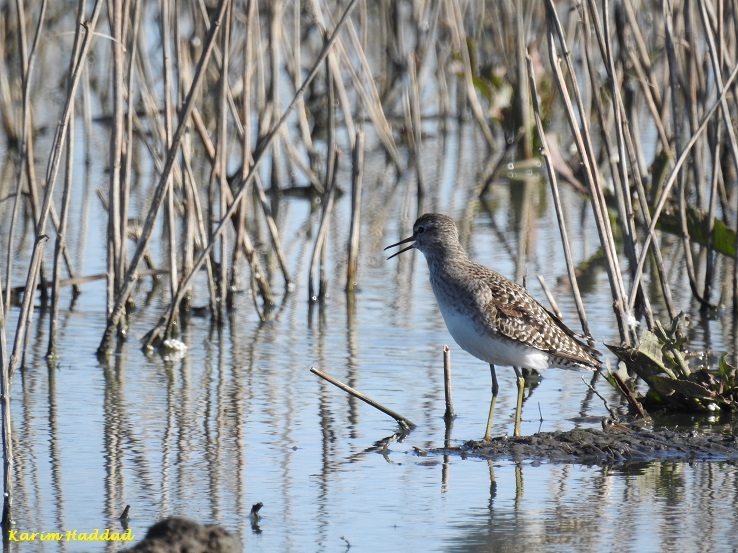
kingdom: Animalia
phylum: Chordata
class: Aves
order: Charadriiformes
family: Scolopacidae
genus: Tringa
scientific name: Tringa glareola
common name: Wood sandpiper
